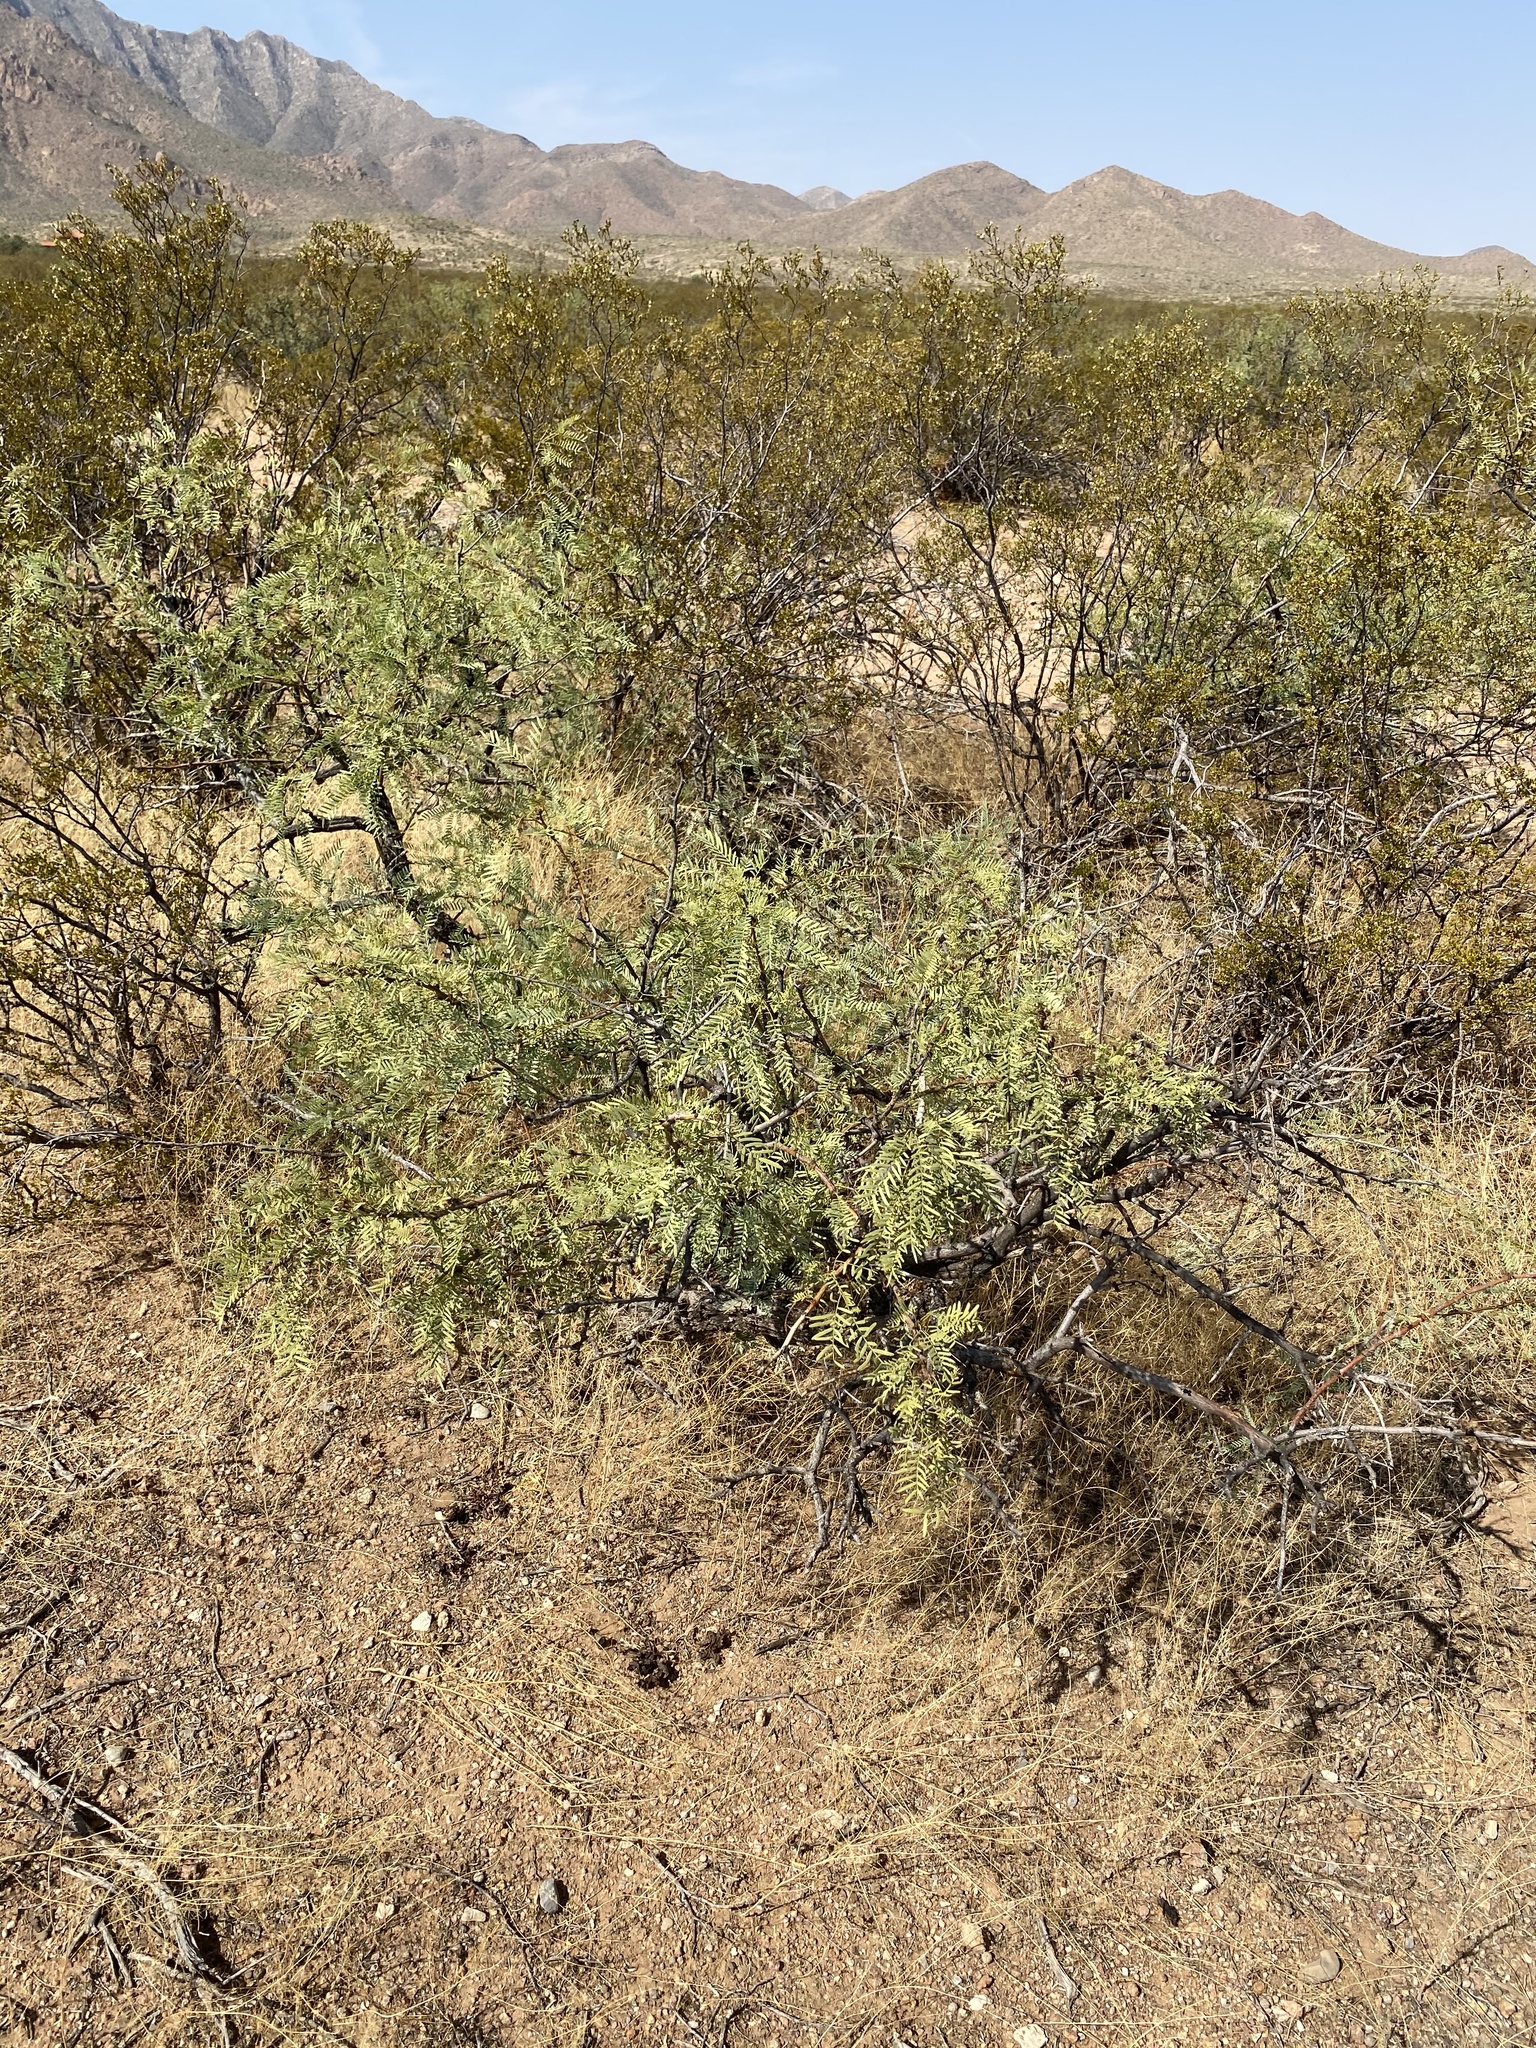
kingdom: Plantae
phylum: Tracheophyta
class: Magnoliopsida
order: Fabales
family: Fabaceae
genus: Prosopis
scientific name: Prosopis glandulosa
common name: Honey mesquite
